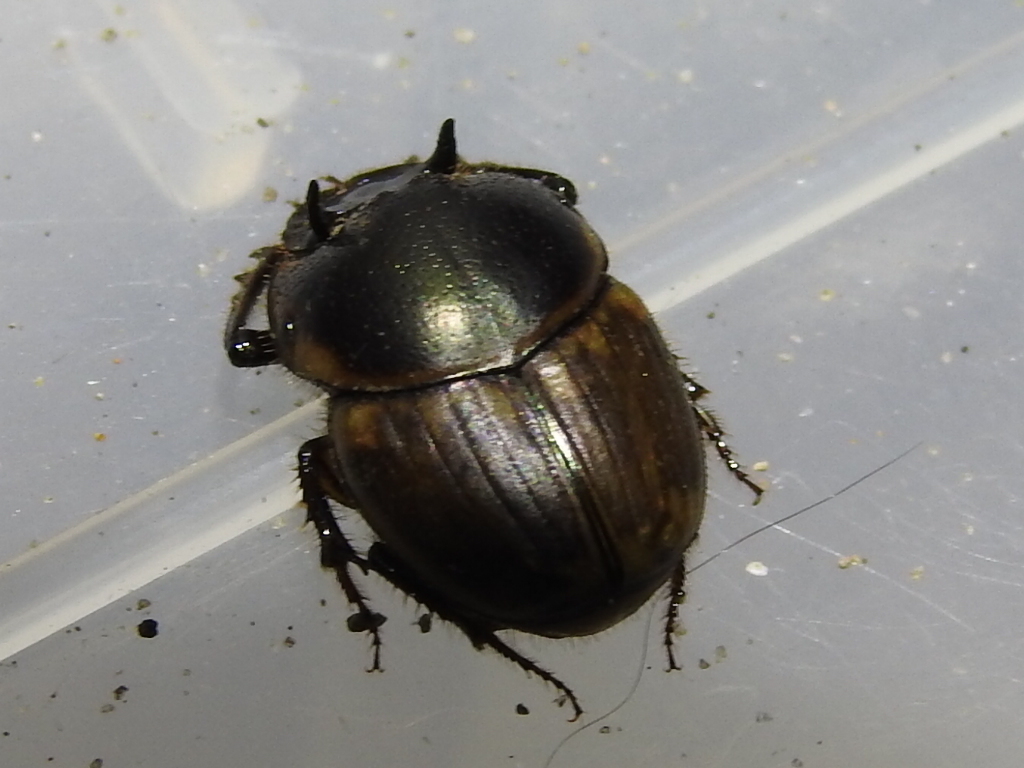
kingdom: Animalia
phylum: Arthropoda
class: Insecta
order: Coleoptera
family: Scarabaeidae
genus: Digitonthophagus
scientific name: Digitonthophagus gazella
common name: Brown dung beetle
